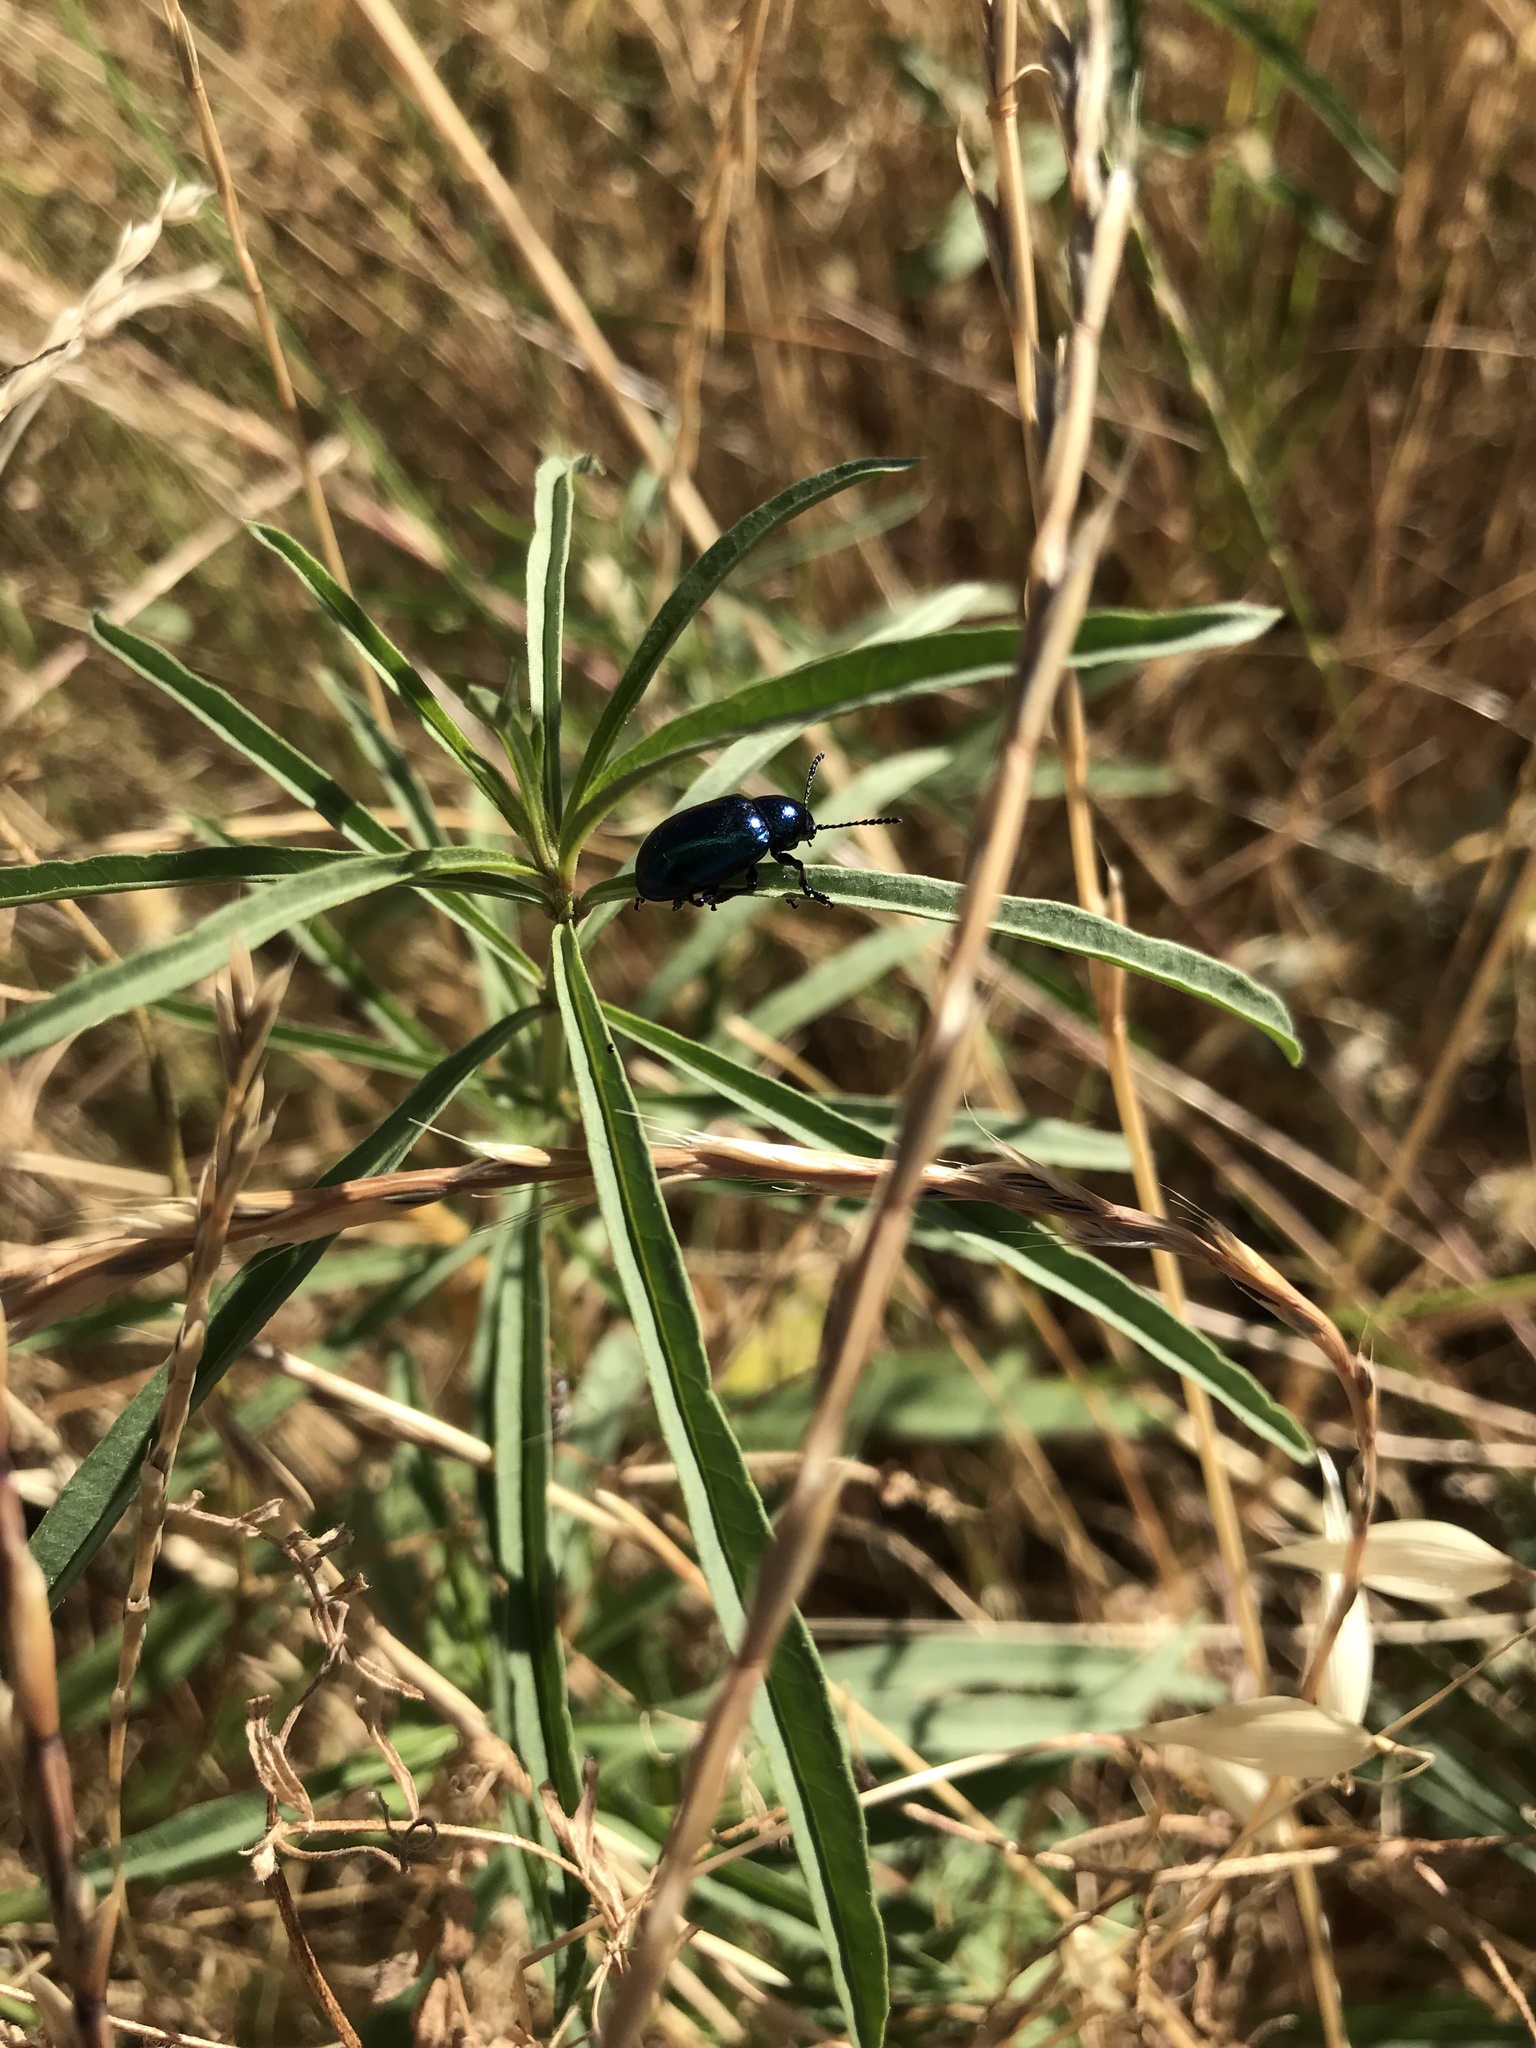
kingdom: Animalia
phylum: Arthropoda
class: Insecta
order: Coleoptera
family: Chrysomelidae
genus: Chrysochus
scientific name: Chrysochus cobaltinus
